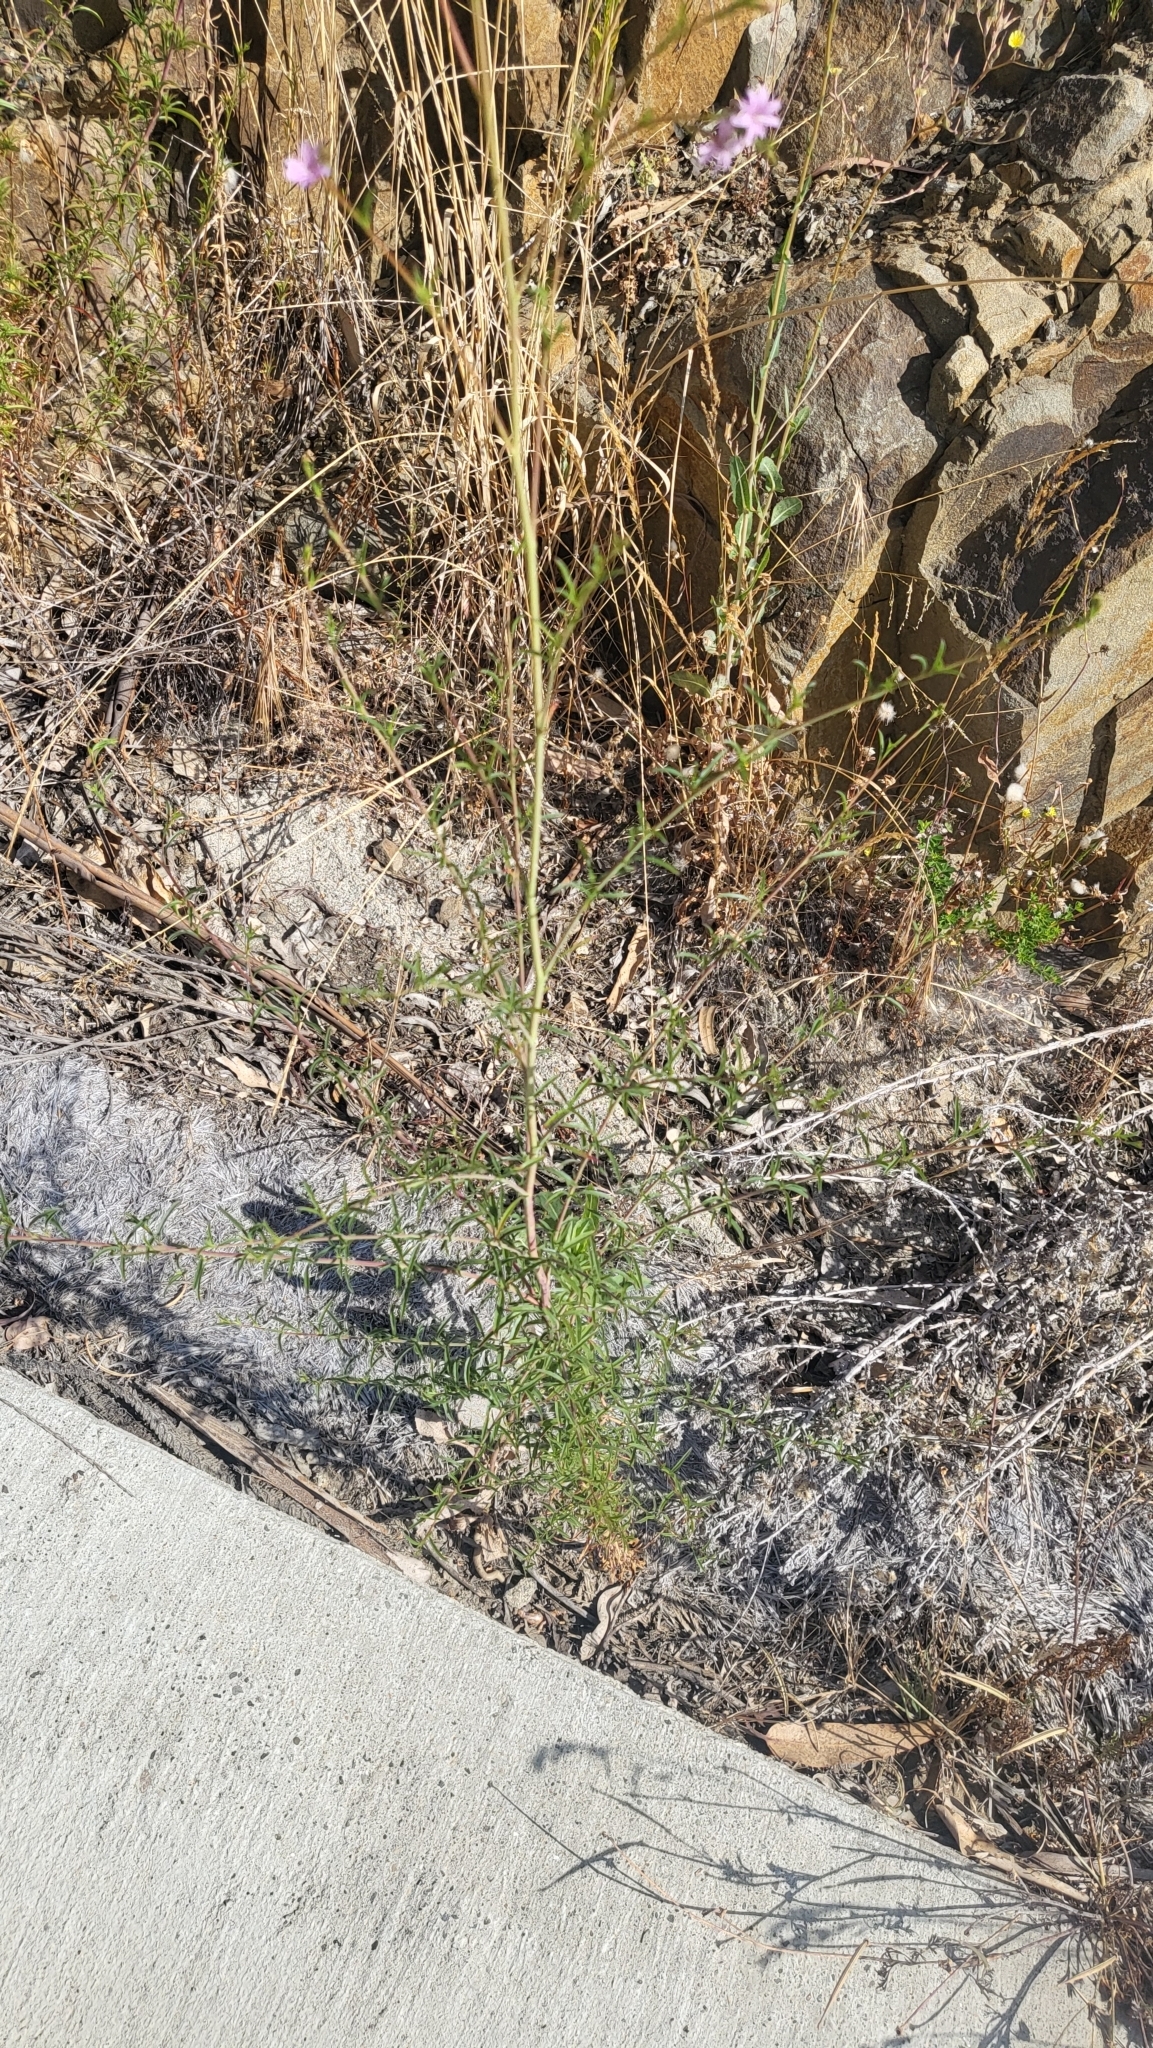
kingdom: Plantae
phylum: Tracheophyta
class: Magnoliopsida
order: Myrtales
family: Onagraceae
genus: Epilobium
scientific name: Epilobium brachycarpum
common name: Annual willowherb
